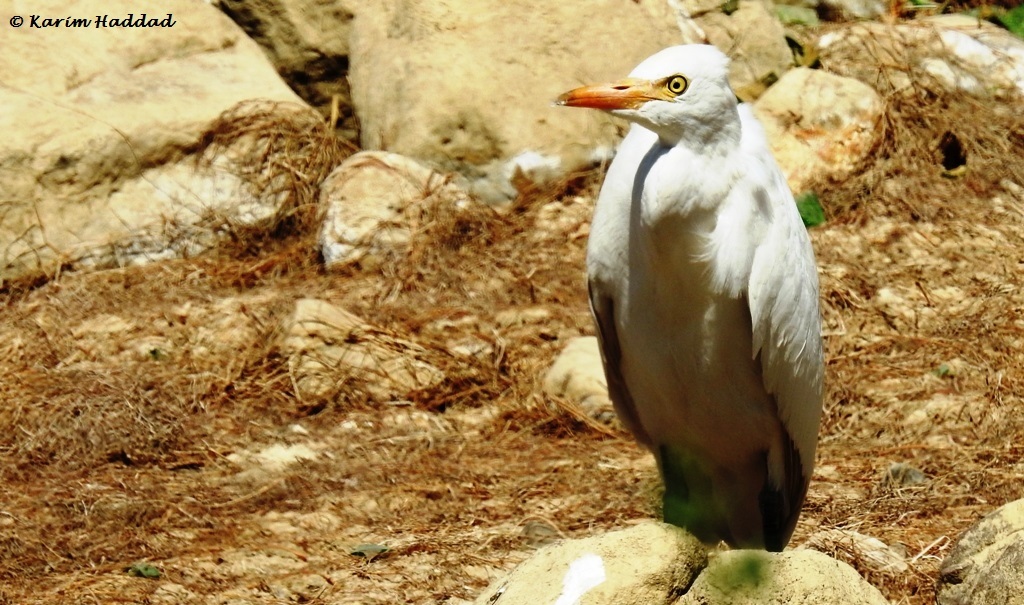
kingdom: Animalia
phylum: Chordata
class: Aves
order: Pelecaniformes
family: Ardeidae
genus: Bubulcus
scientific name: Bubulcus ibis
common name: Cattle egret
